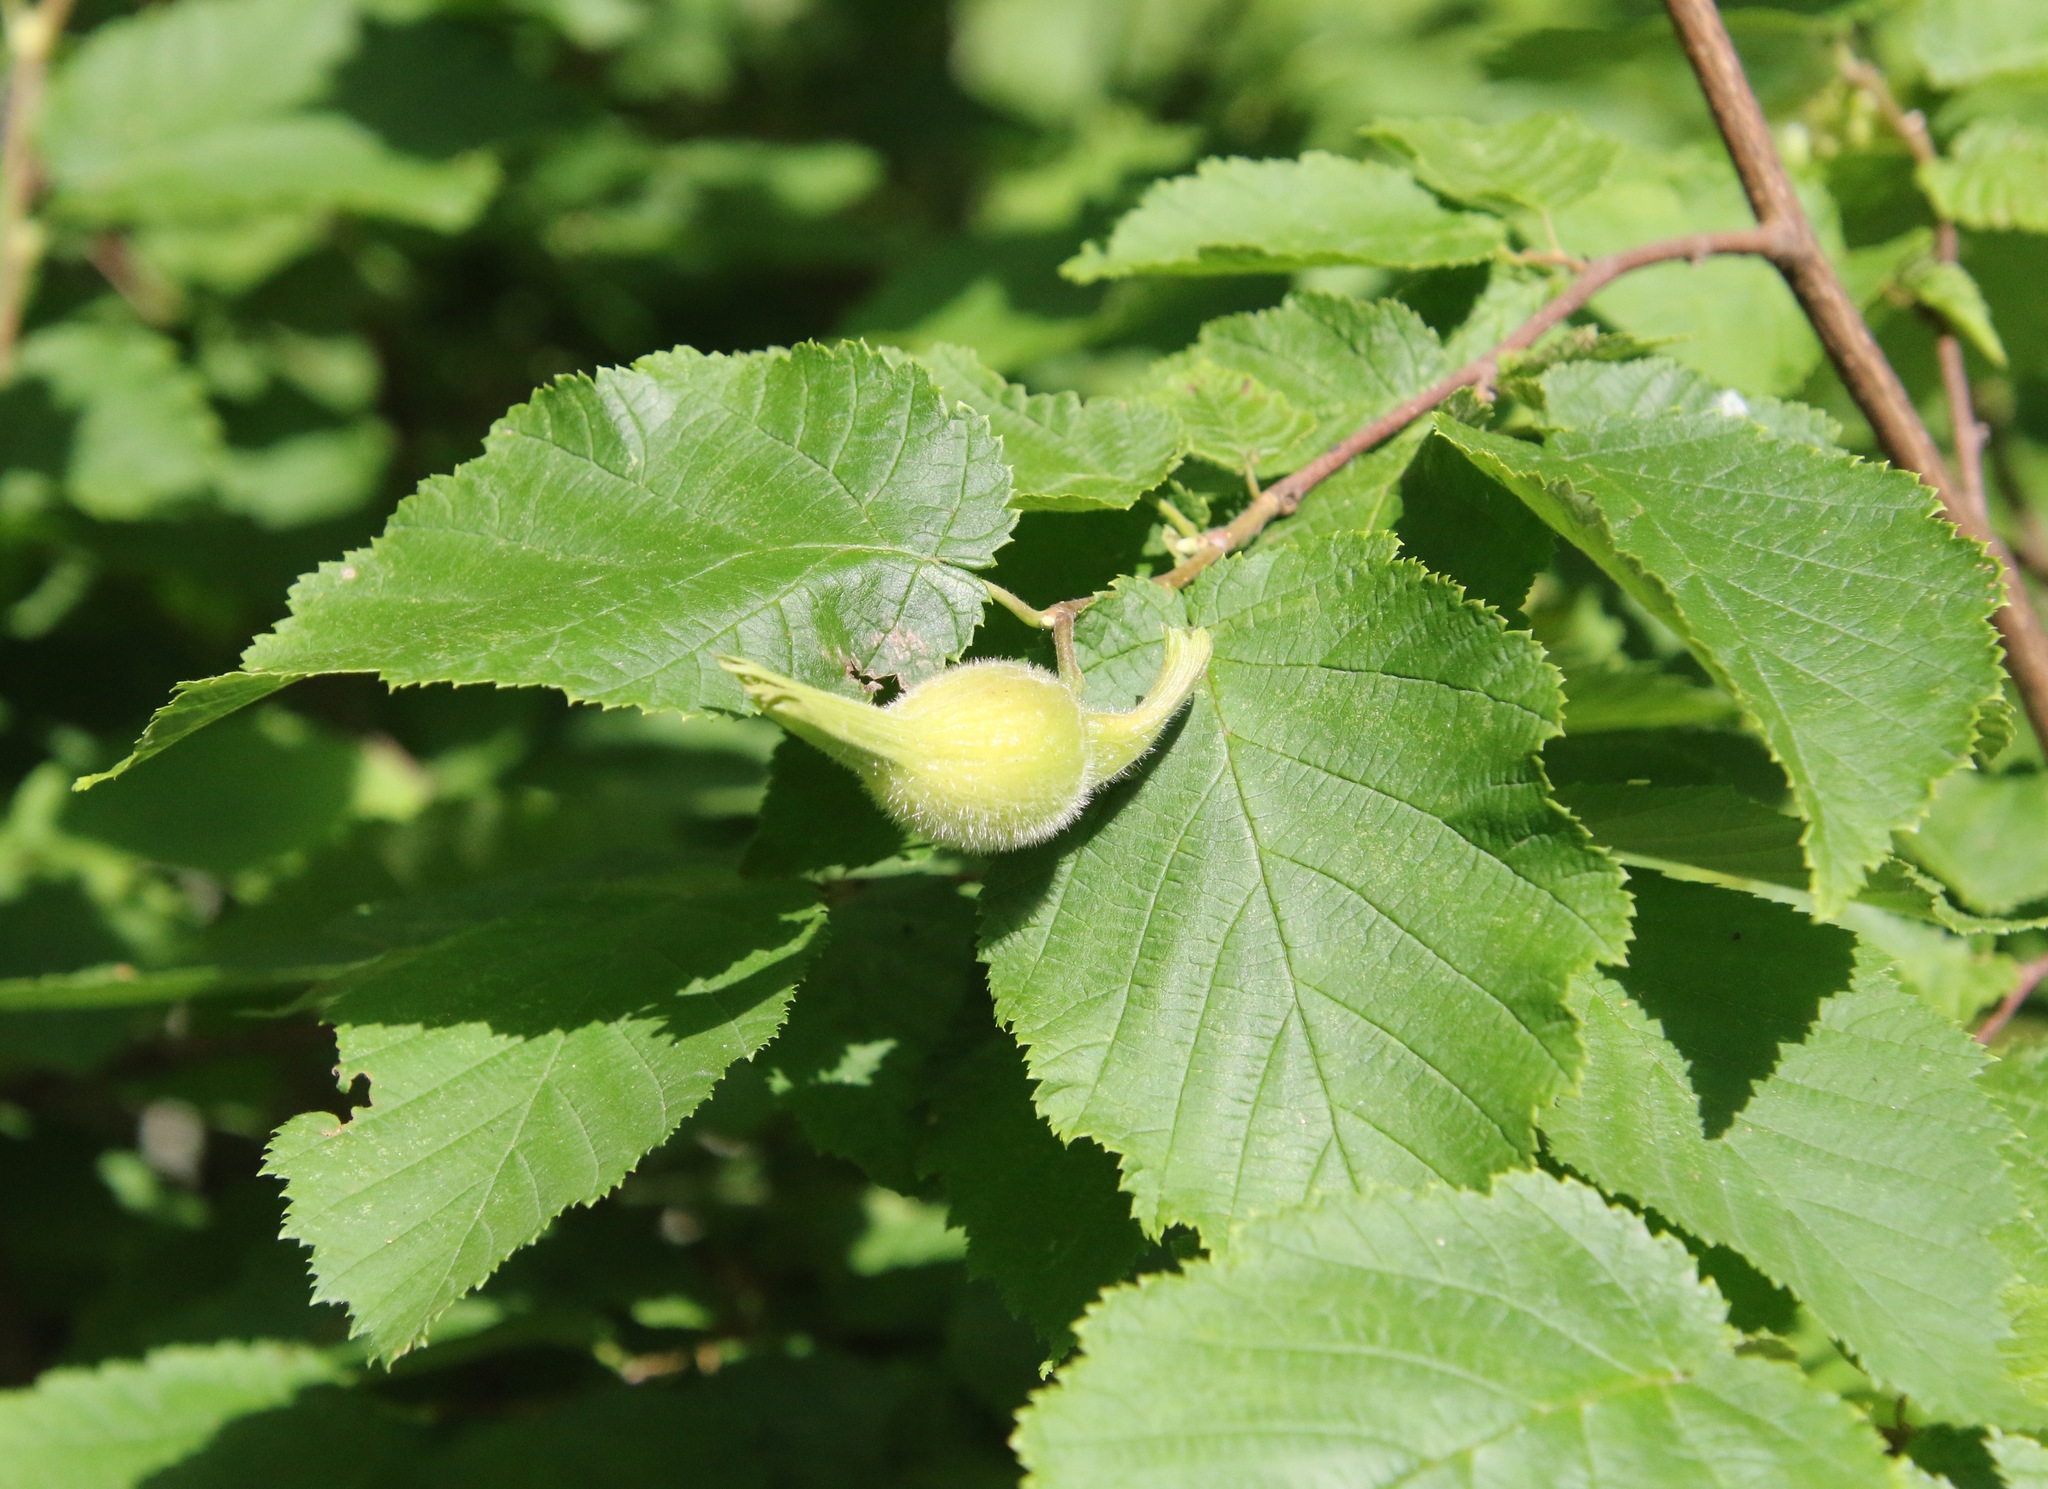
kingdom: Plantae
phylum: Tracheophyta
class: Magnoliopsida
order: Fagales
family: Betulaceae
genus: Corylus
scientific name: Corylus cornuta
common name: Beaked hazel
